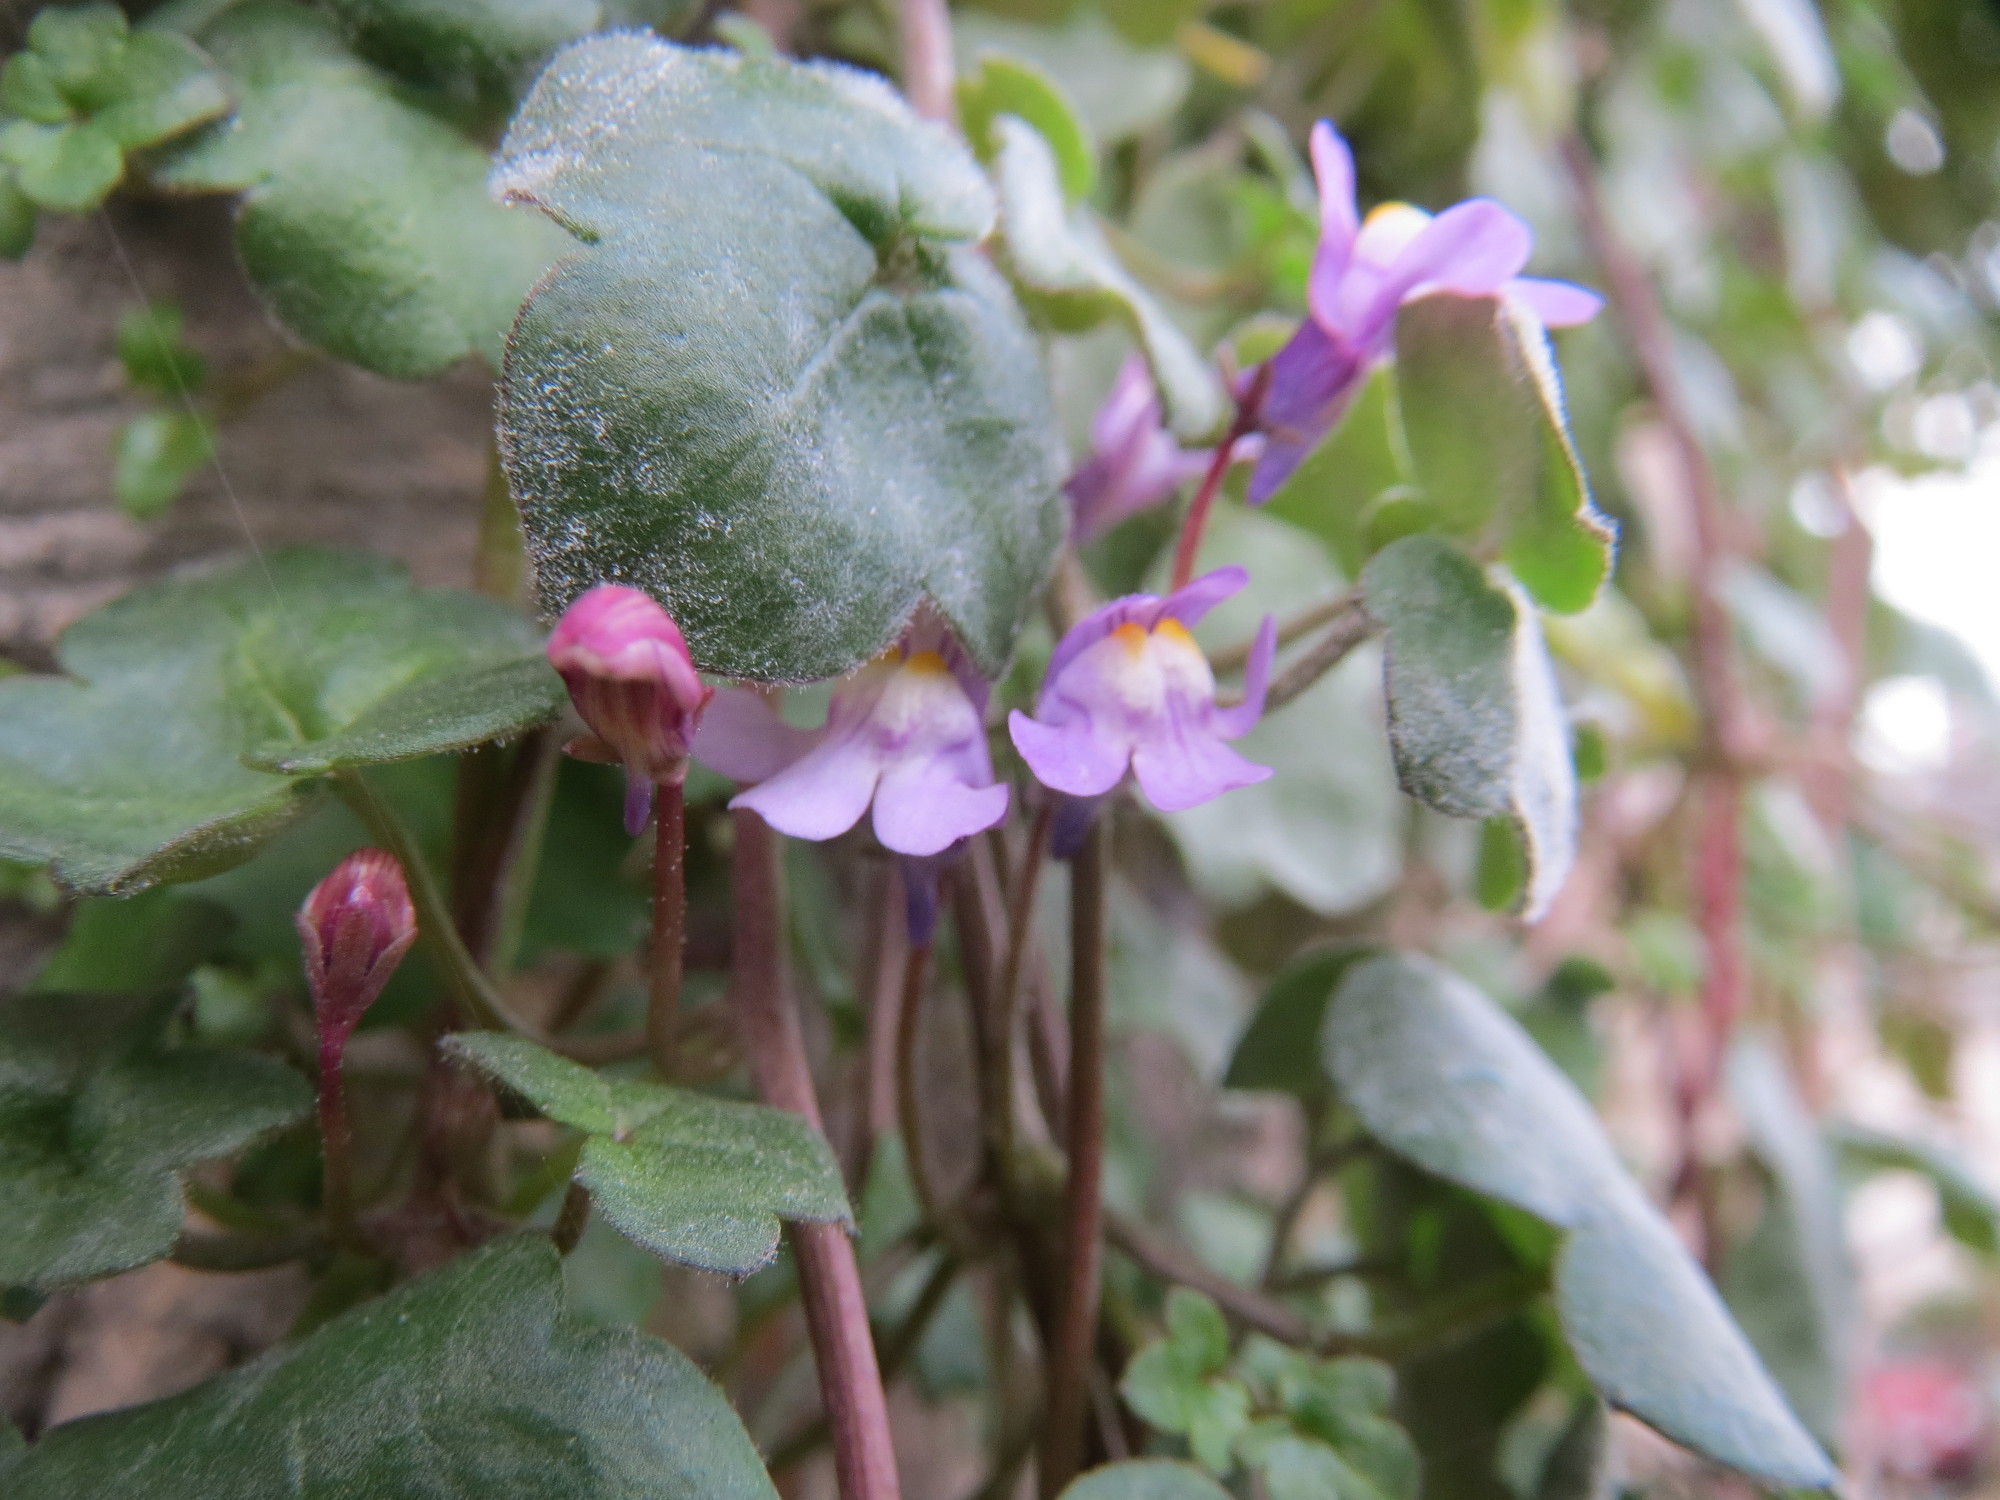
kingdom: Plantae
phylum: Tracheophyta
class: Magnoliopsida
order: Lamiales
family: Plantaginaceae
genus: Cymbalaria
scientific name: Cymbalaria muralis
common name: Ivy-leaved toadflax
